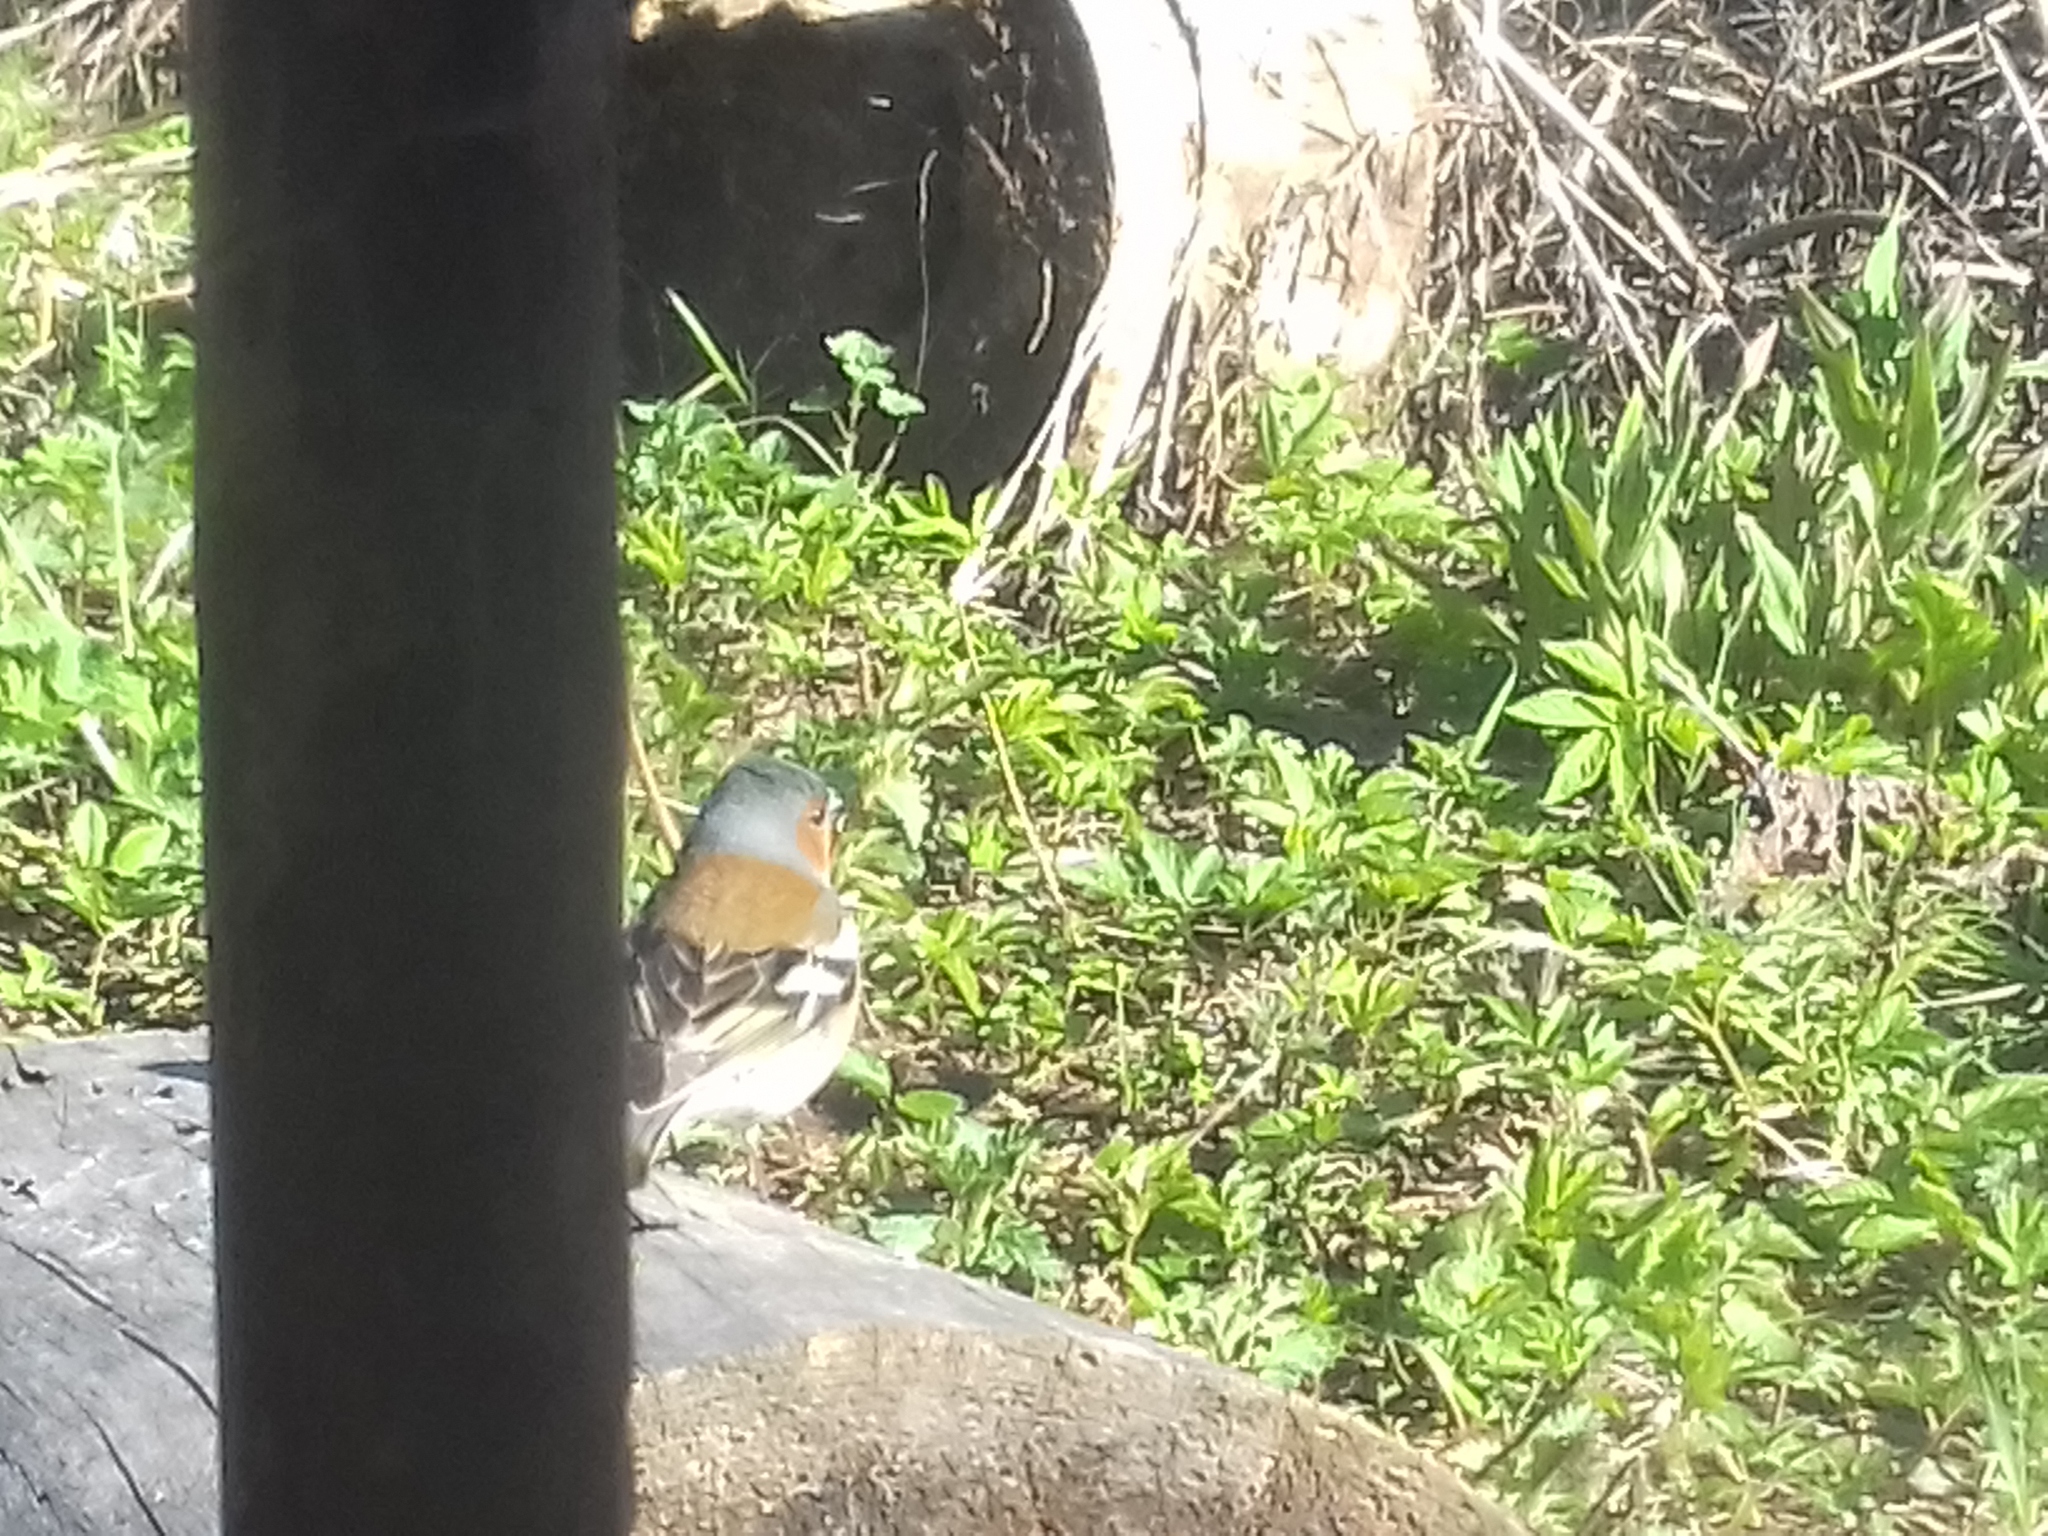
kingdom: Animalia
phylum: Chordata
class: Aves
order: Passeriformes
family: Fringillidae
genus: Fringilla
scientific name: Fringilla coelebs
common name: Common chaffinch
